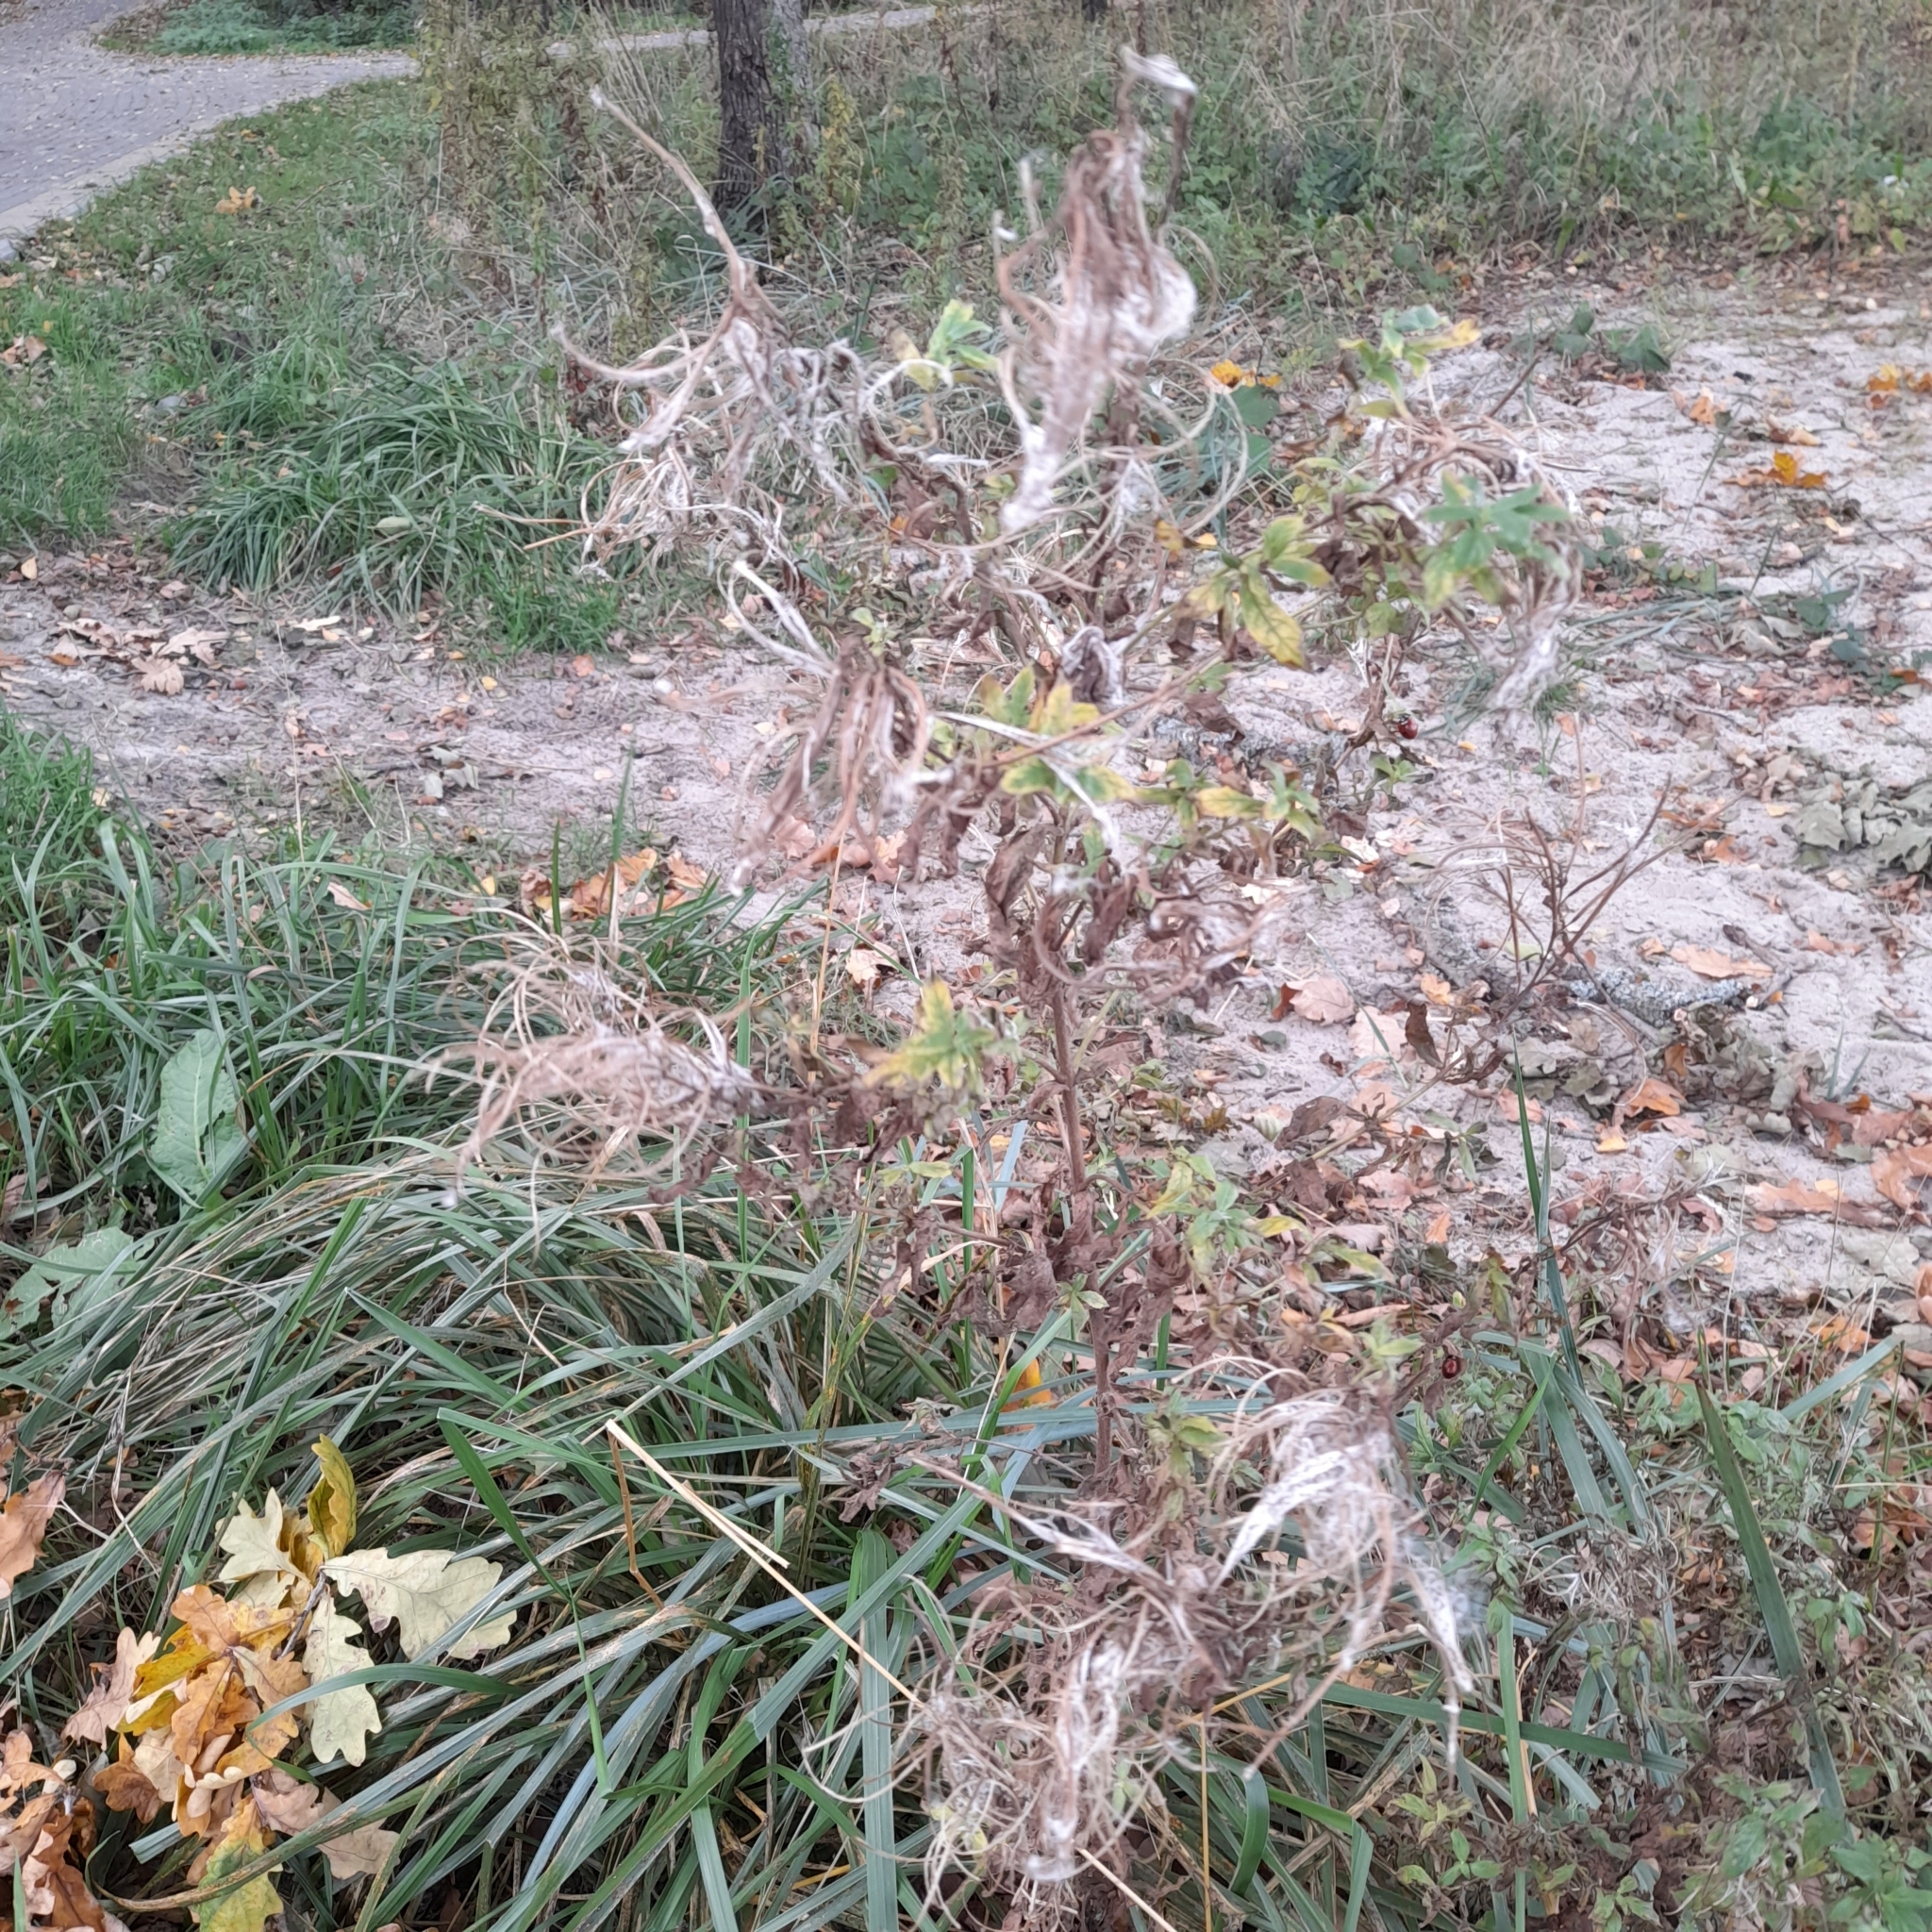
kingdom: Plantae
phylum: Tracheophyta
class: Magnoliopsida
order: Myrtales
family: Onagraceae
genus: Epilobium
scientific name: Epilobium hirsutum
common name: Great willowherb
